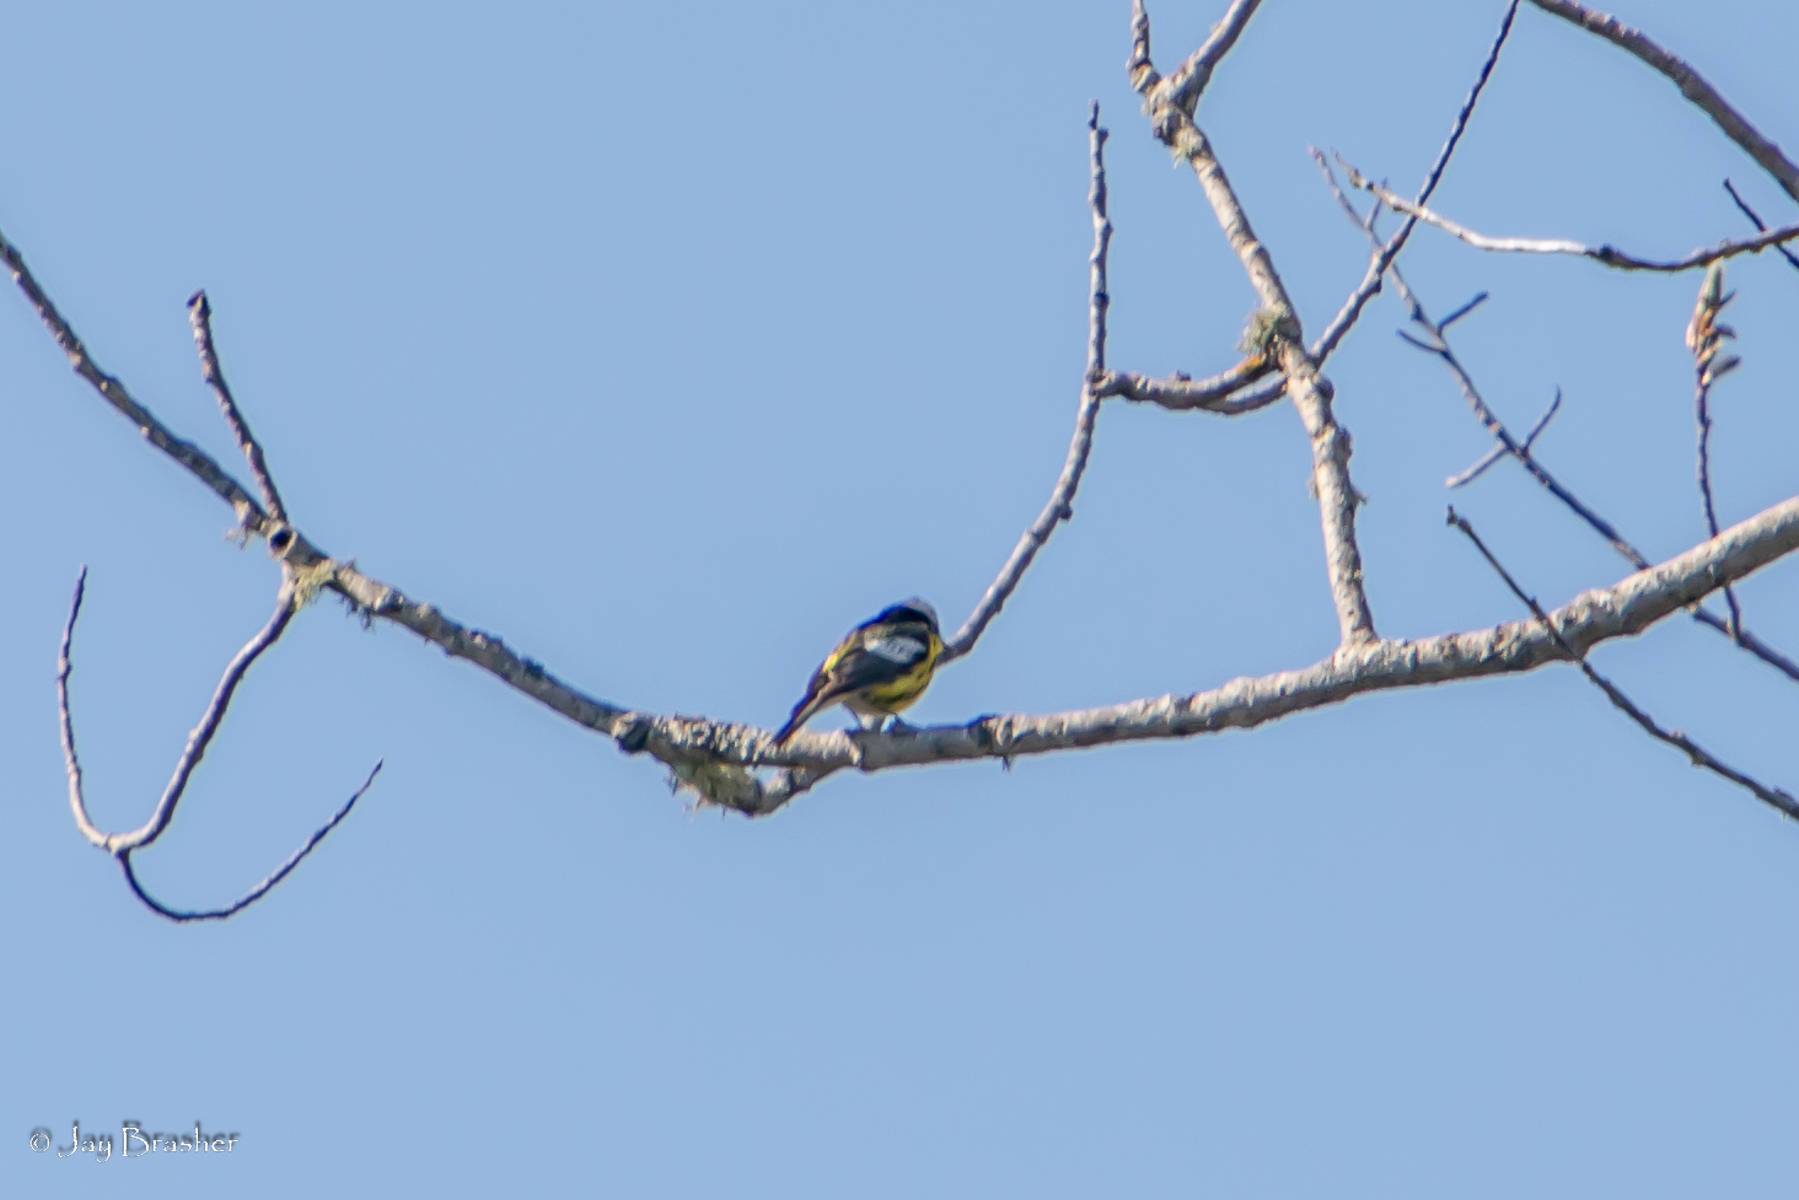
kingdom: Animalia
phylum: Chordata
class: Aves
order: Passeriformes
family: Parulidae
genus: Setophaga
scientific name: Setophaga magnolia
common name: Magnolia warbler
